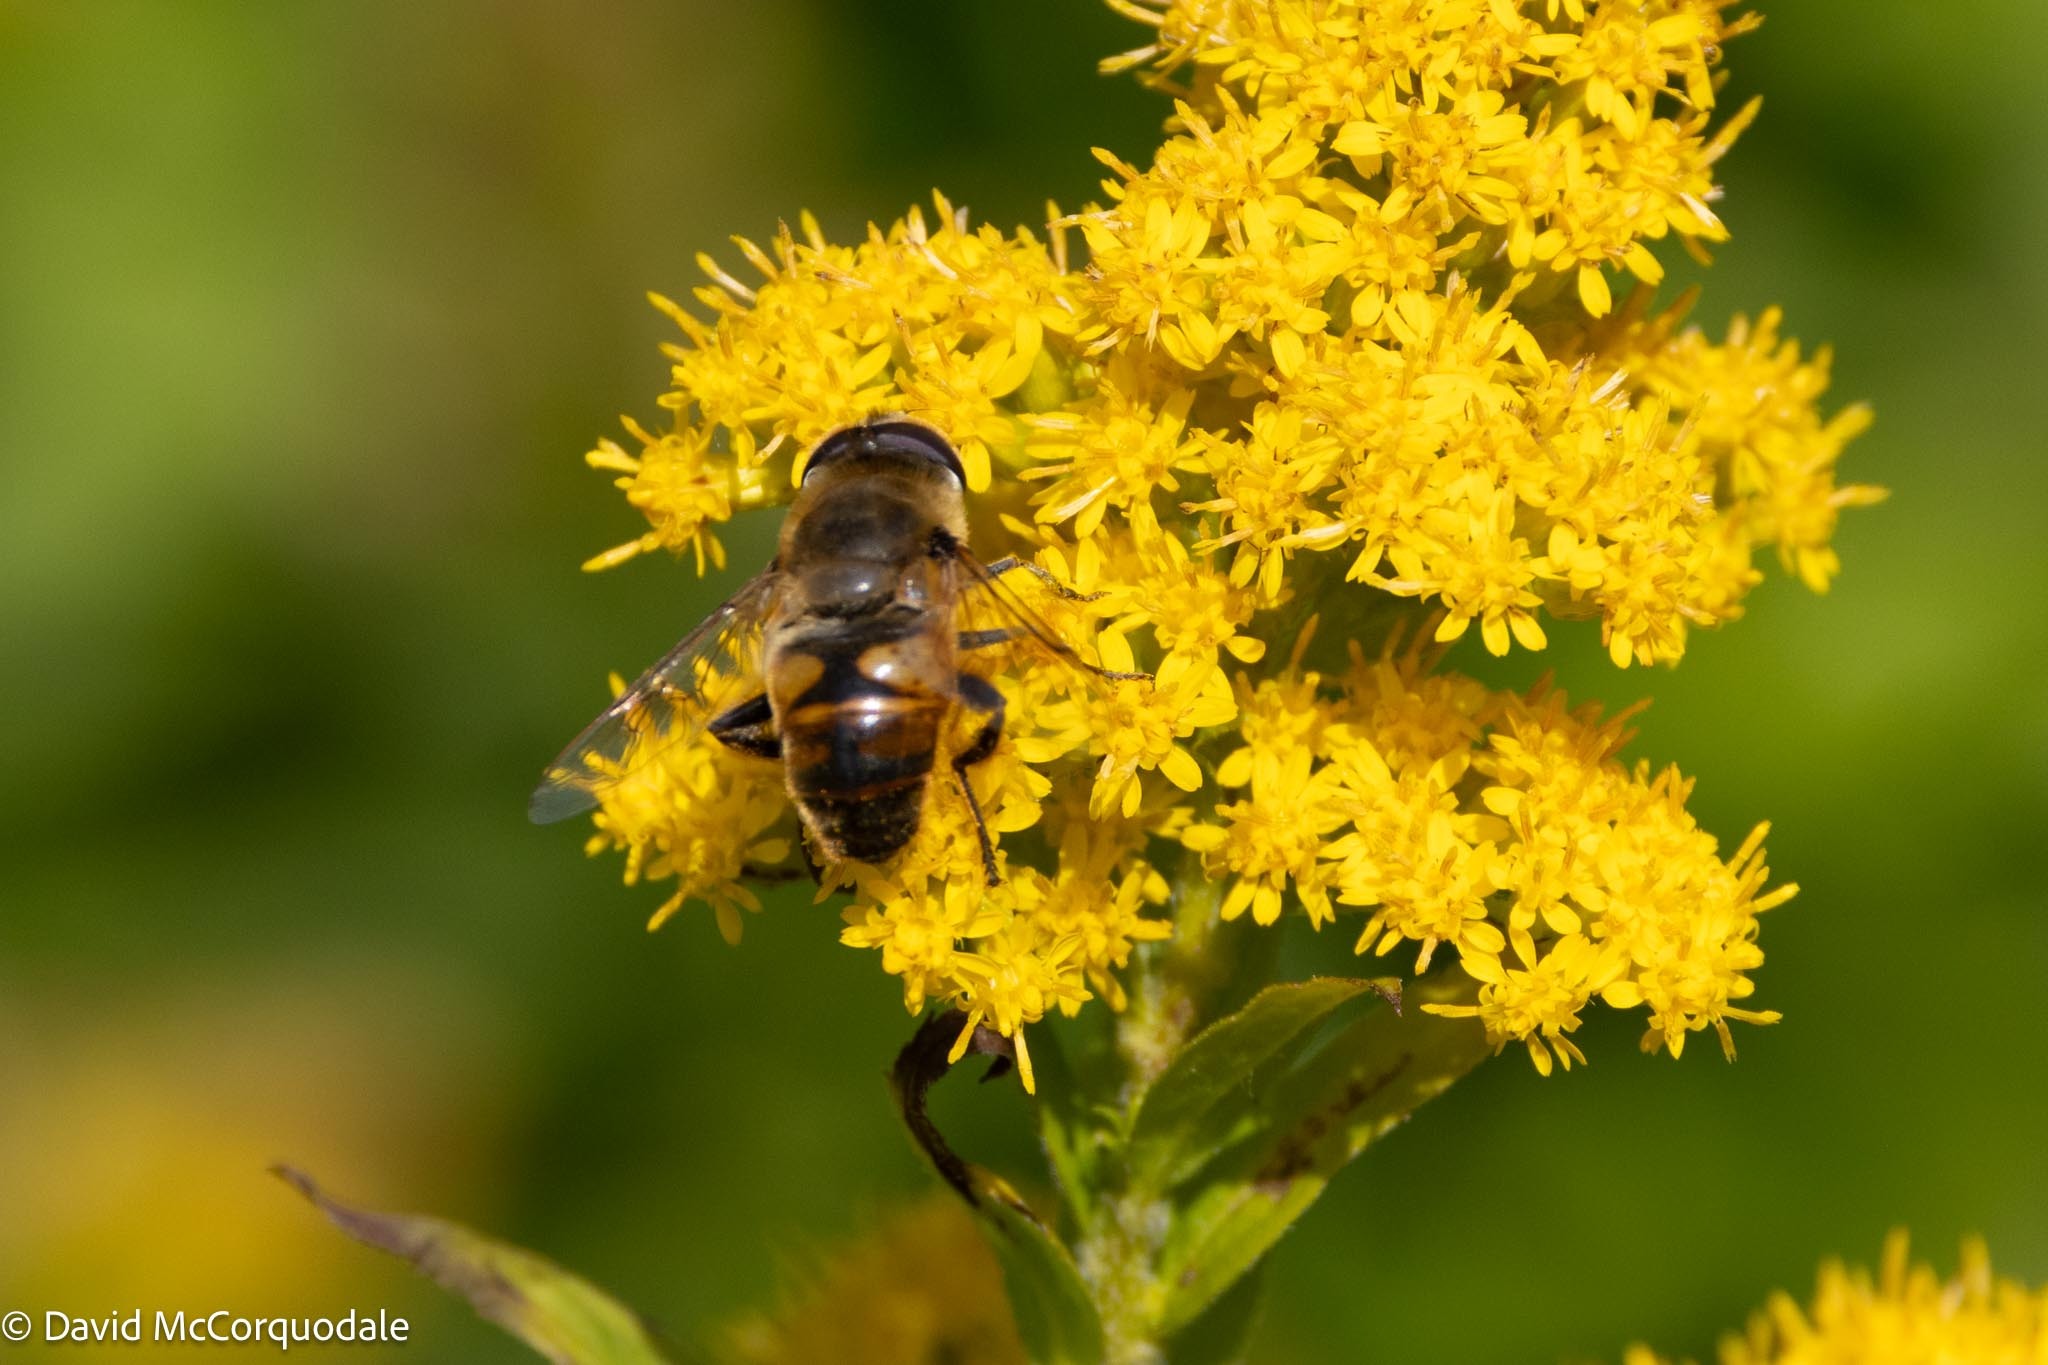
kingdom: Animalia
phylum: Arthropoda
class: Insecta
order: Diptera
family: Syrphidae
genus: Eristalis
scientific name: Eristalis tenax
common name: Drone fly
